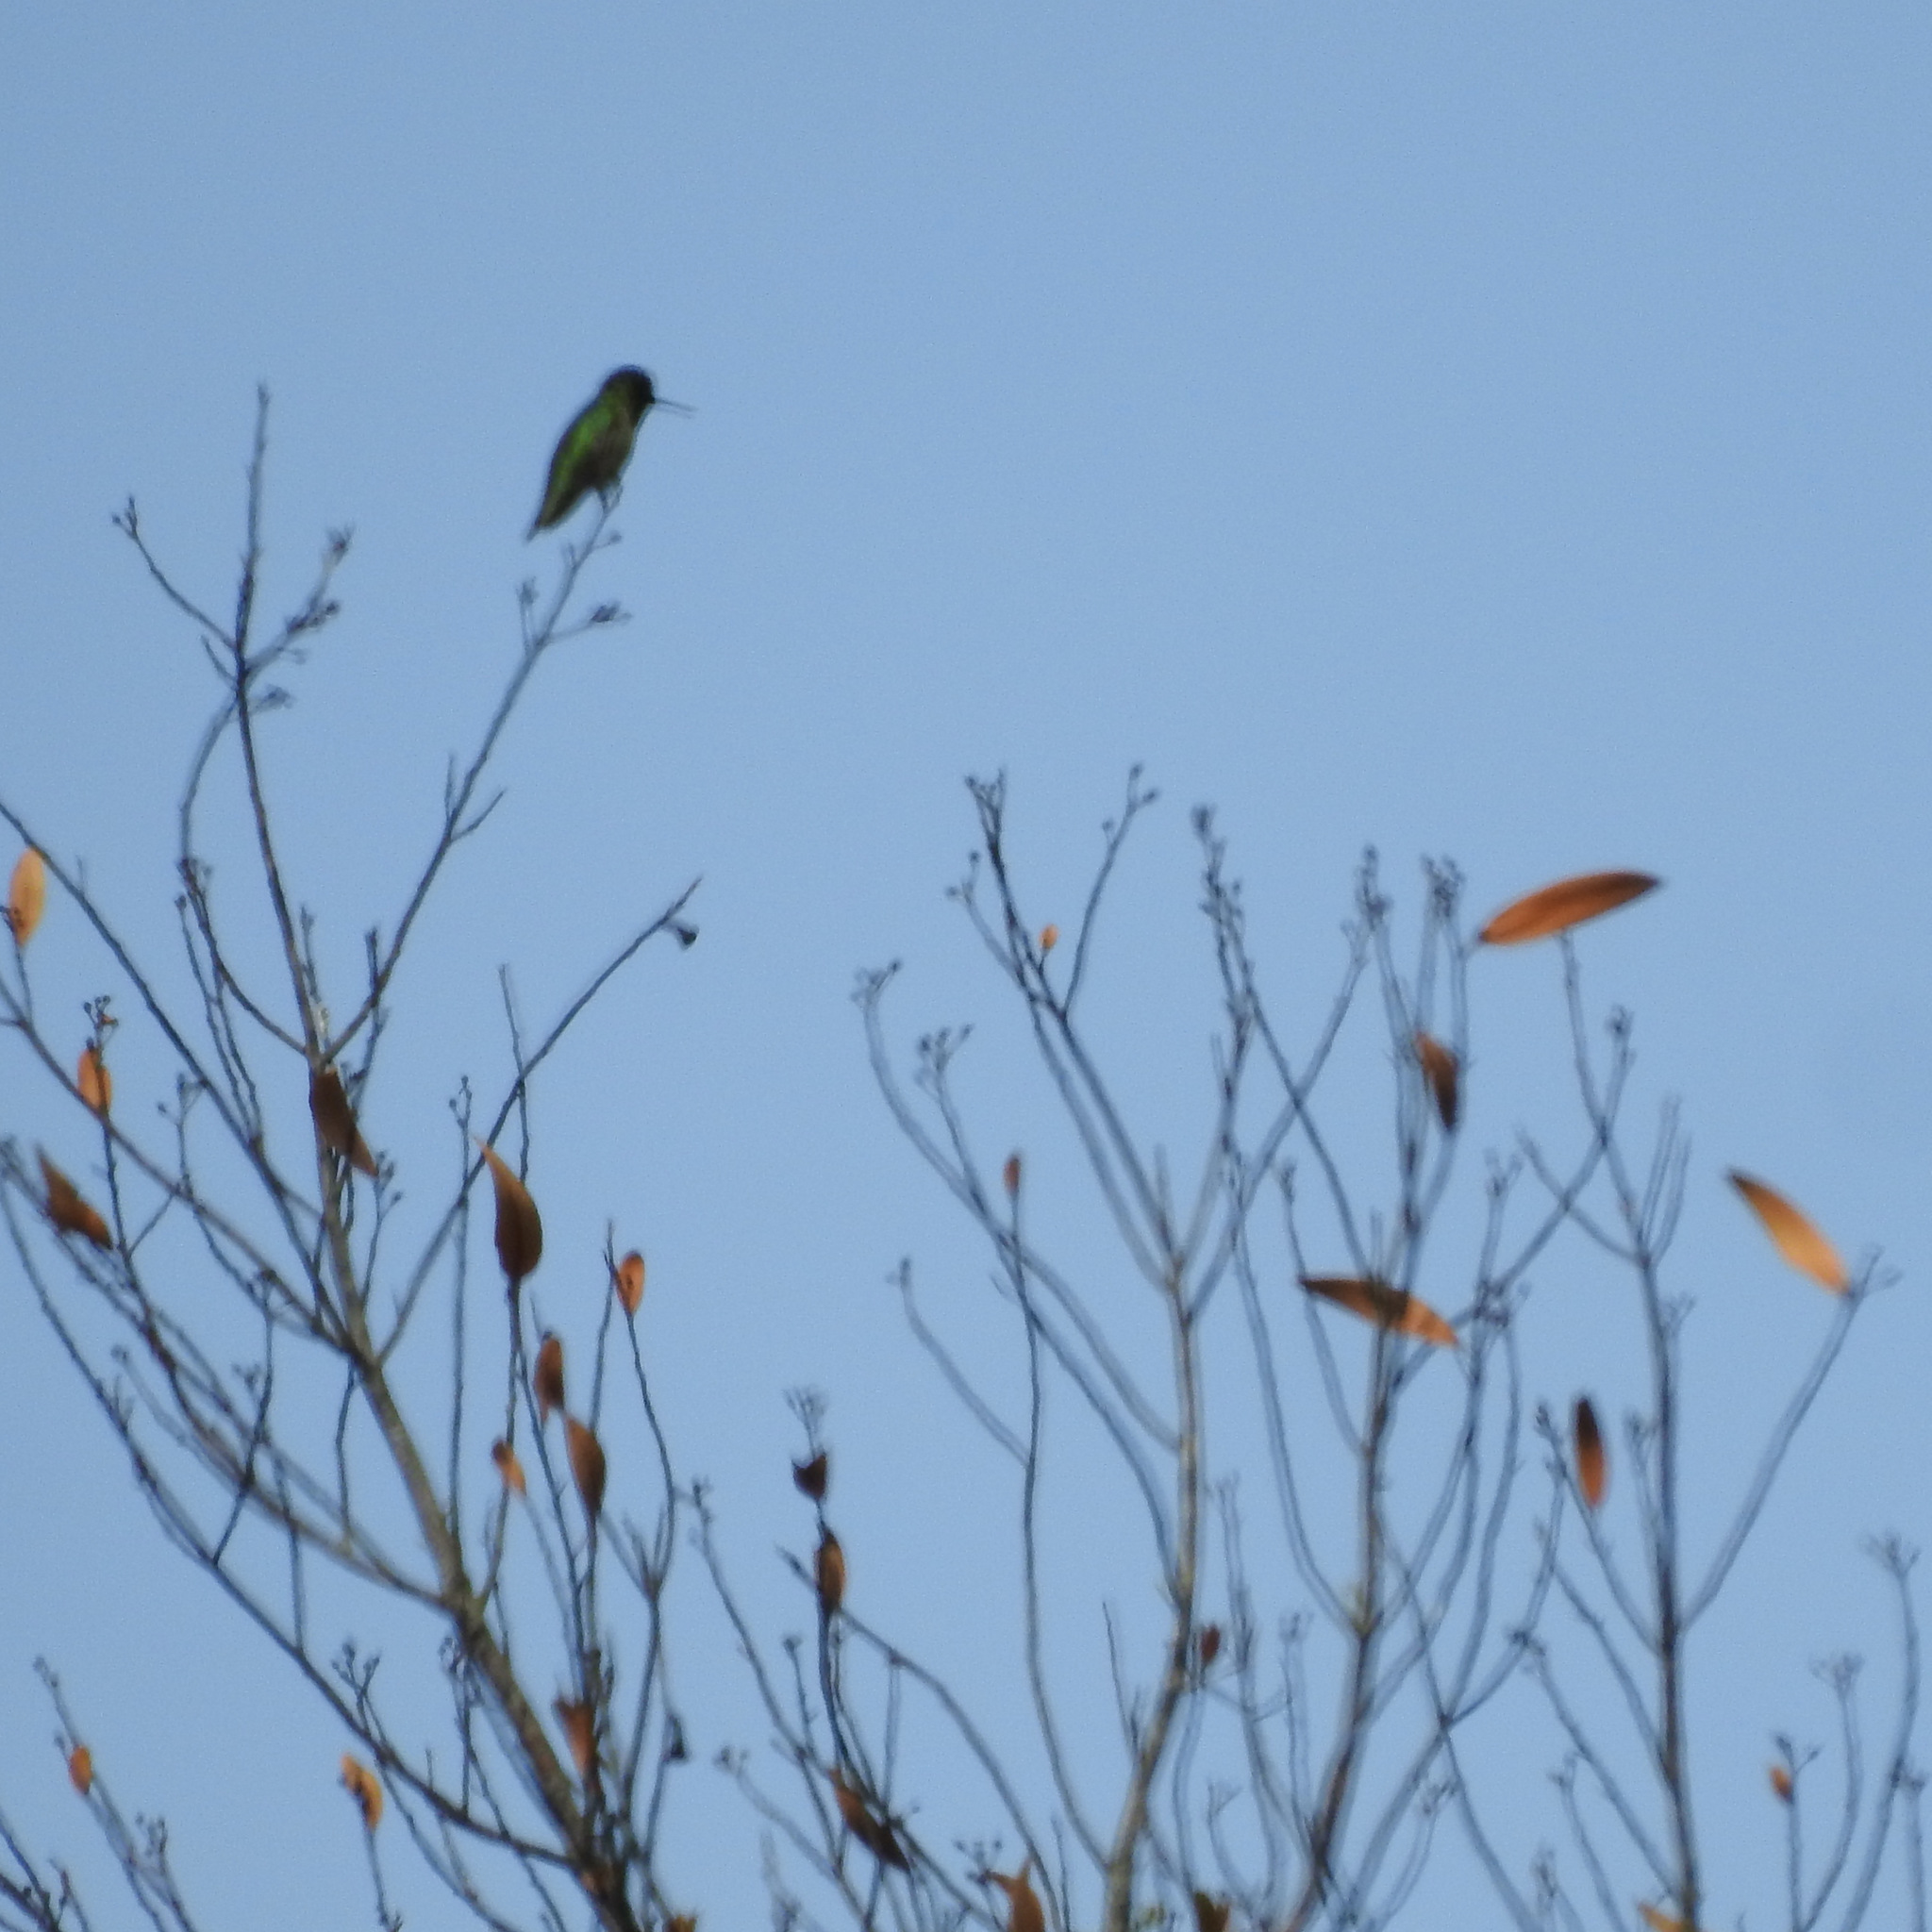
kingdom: Animalia
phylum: Chordata
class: Aves
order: Apodiformes
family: Trochilidae
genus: Calypte
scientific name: Calypte anna
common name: Anna's hummingbird
